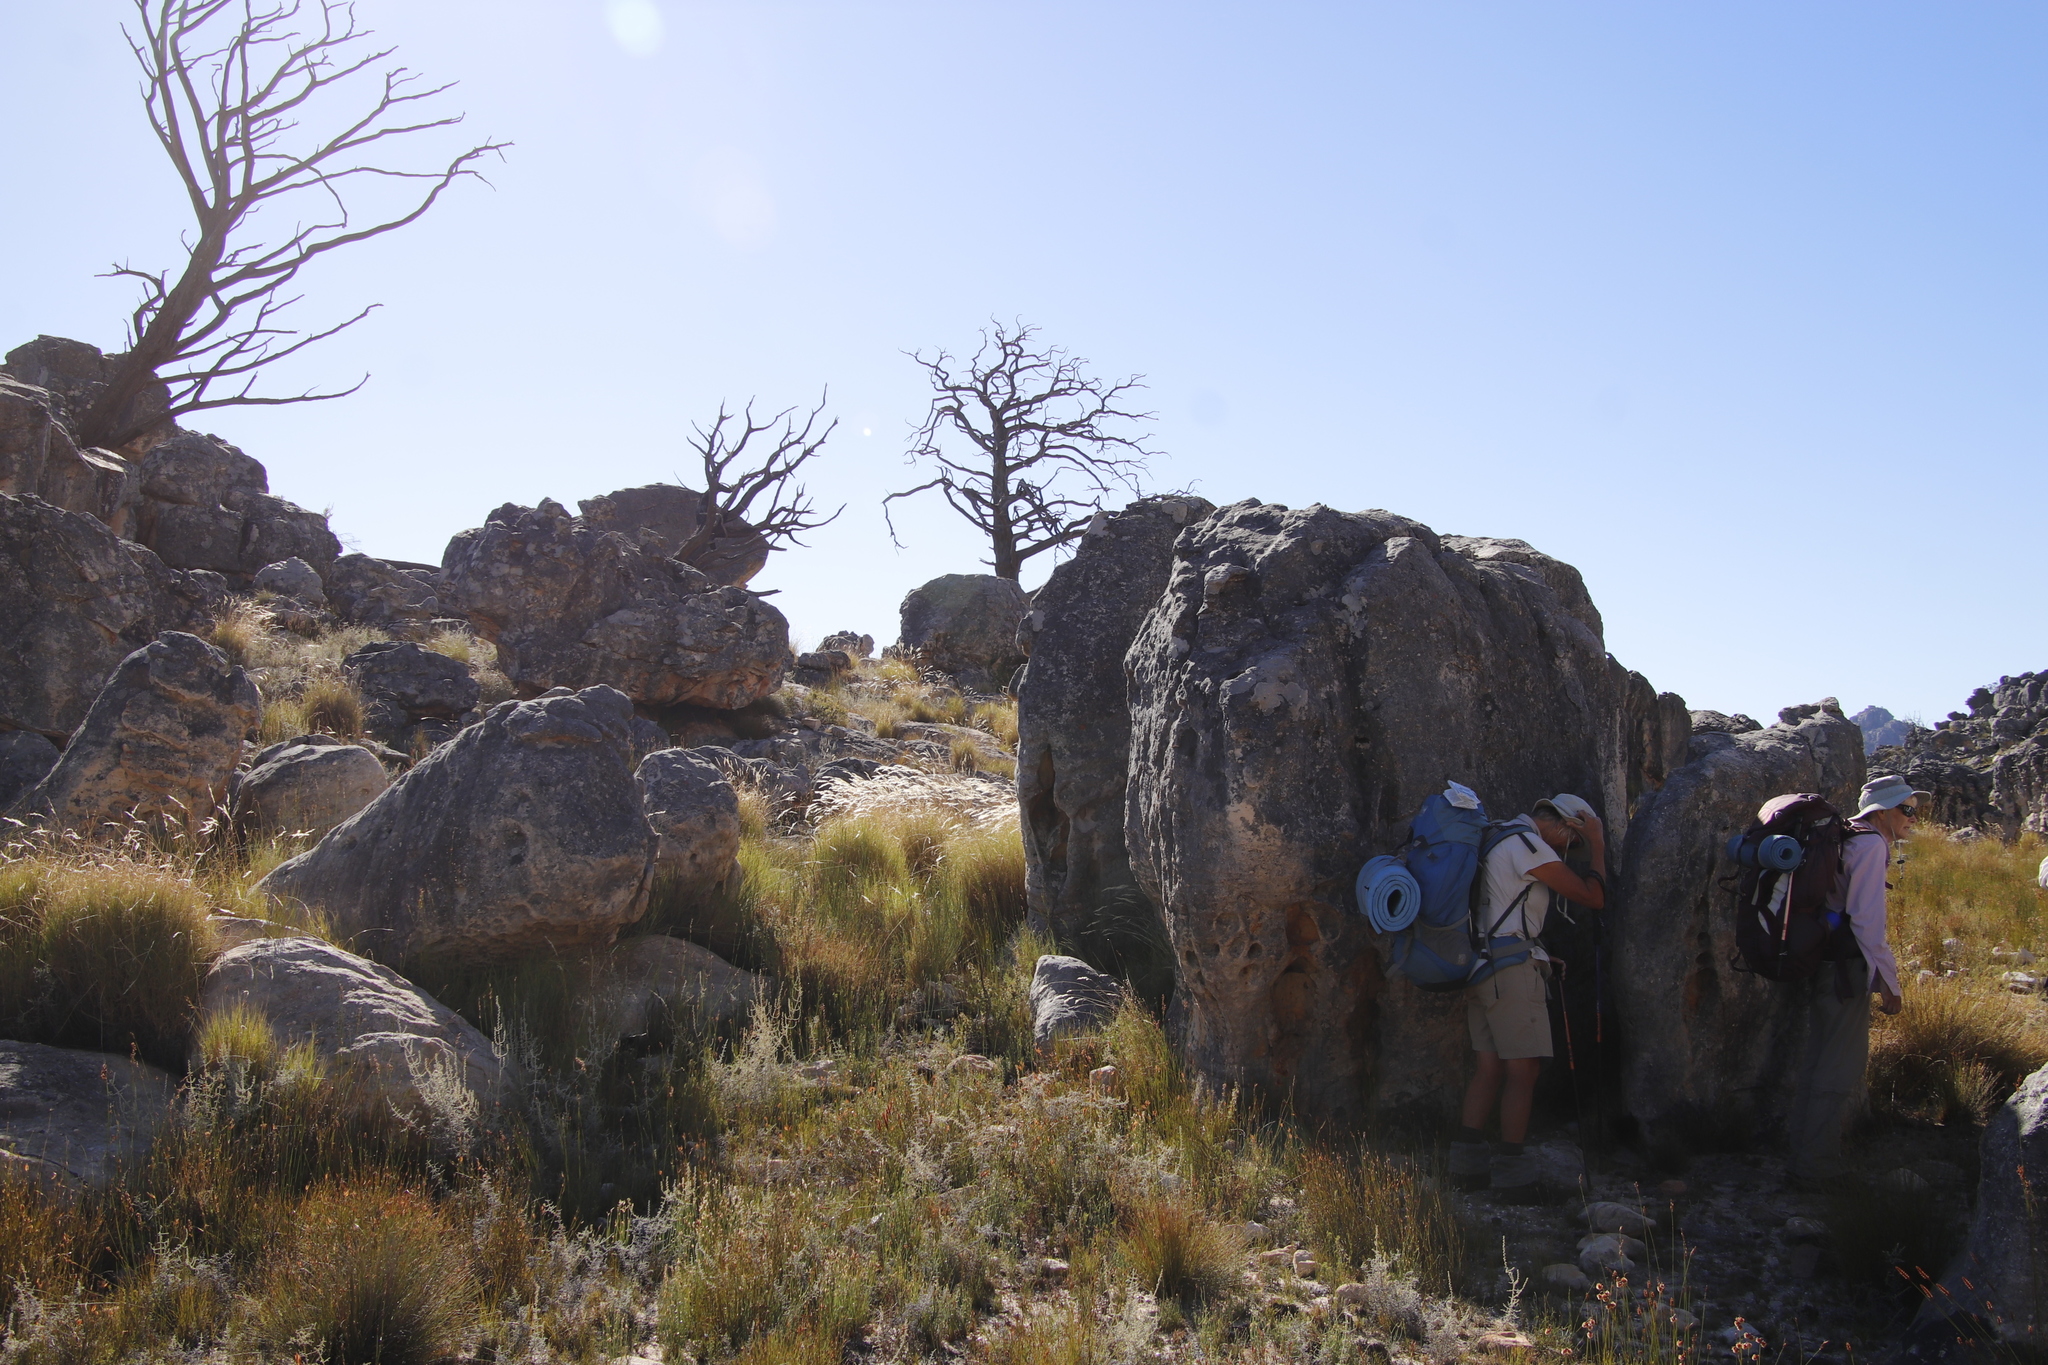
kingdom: Plantae
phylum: Tracheophyta
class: Pinopsida
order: Pinales
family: Cupressaceae
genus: Widdringtonia
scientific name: Widdringtonia nodiflora
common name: Cape cypress
